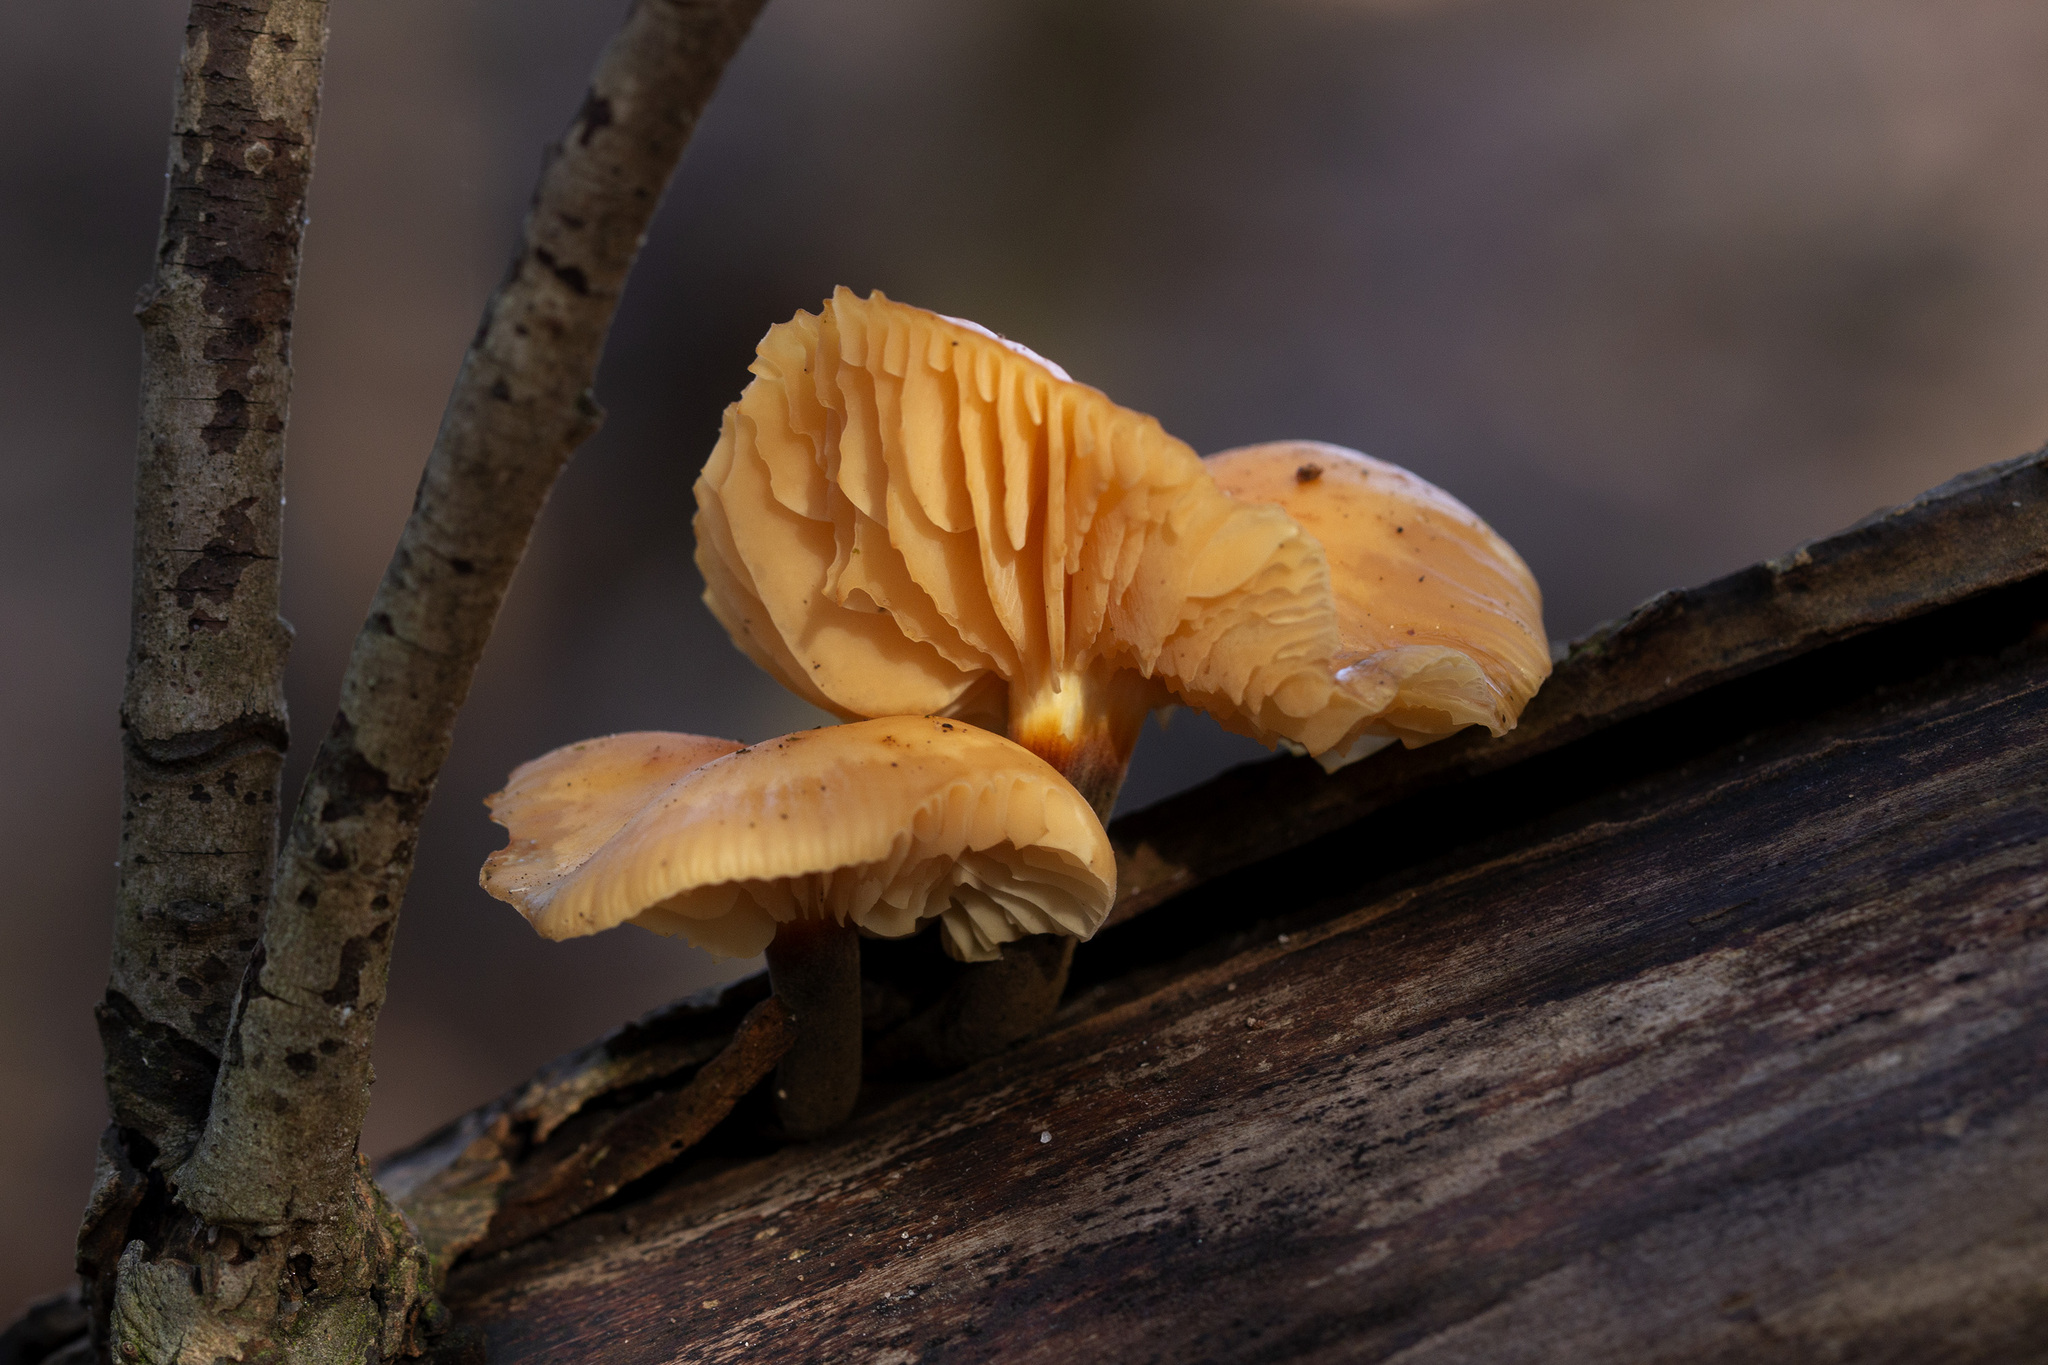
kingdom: Fungi
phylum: Basidiomycota
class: Agaricomycetes
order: Agaricales
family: Physalacriaceae
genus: Flammulina
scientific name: Flammulina
